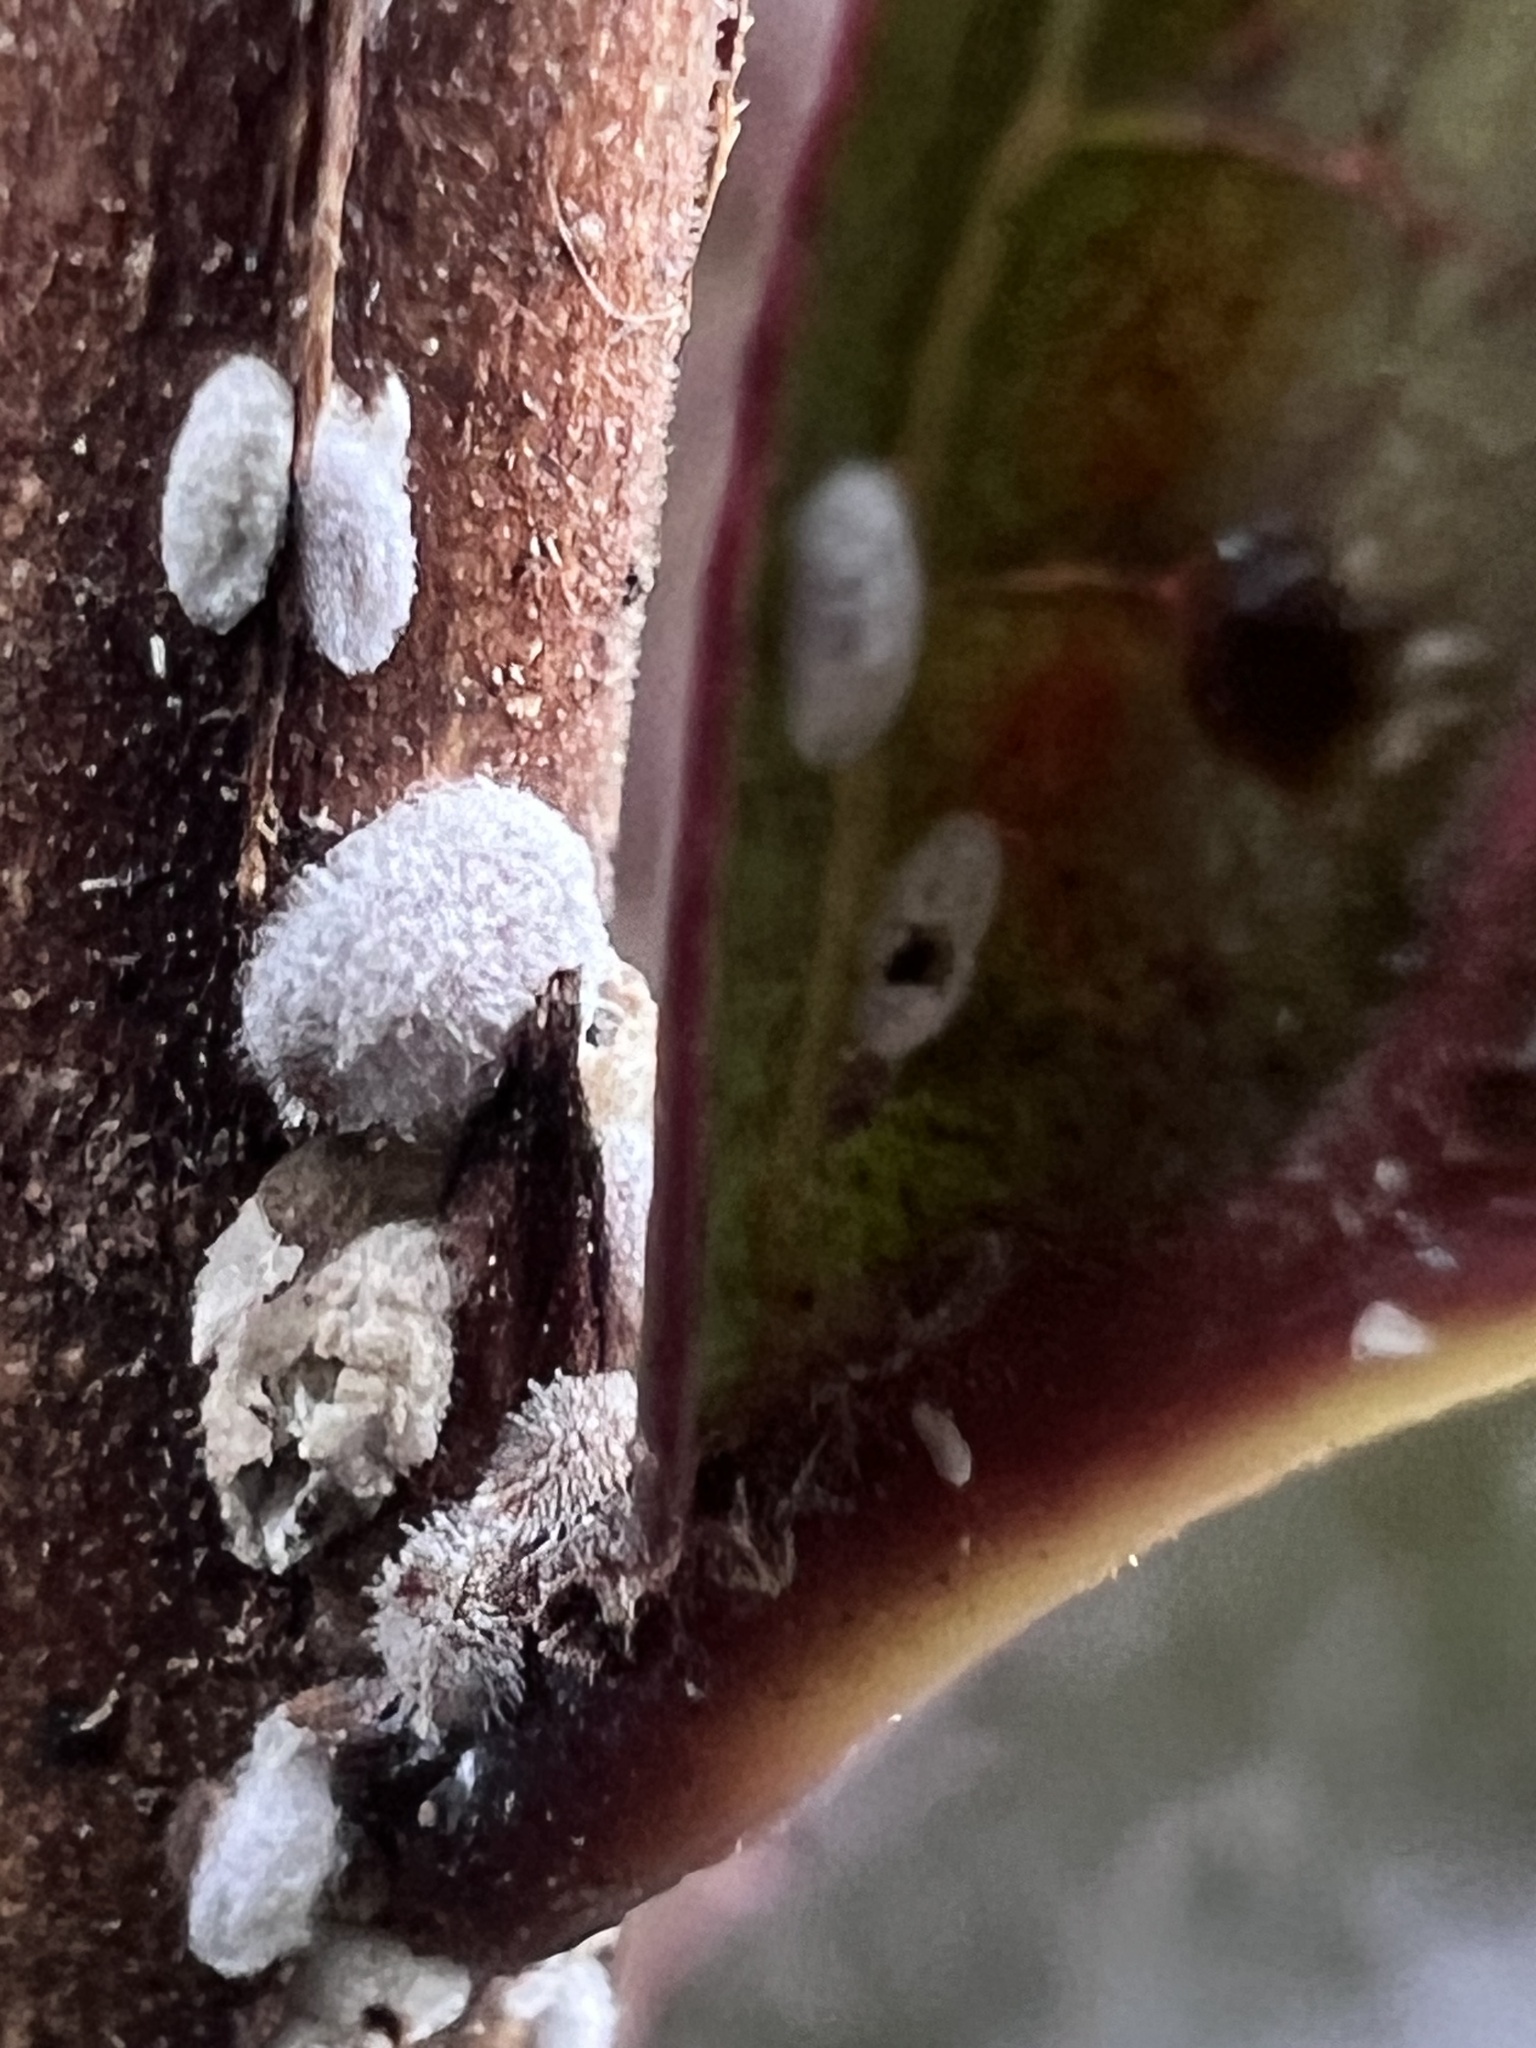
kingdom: Animalia
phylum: Arthropoda
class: Insecta
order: Hemiptera
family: Eriococcidae
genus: Eriococcus
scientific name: Eriococcus lagerstroemiae
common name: Crapemyrtle bark scale
